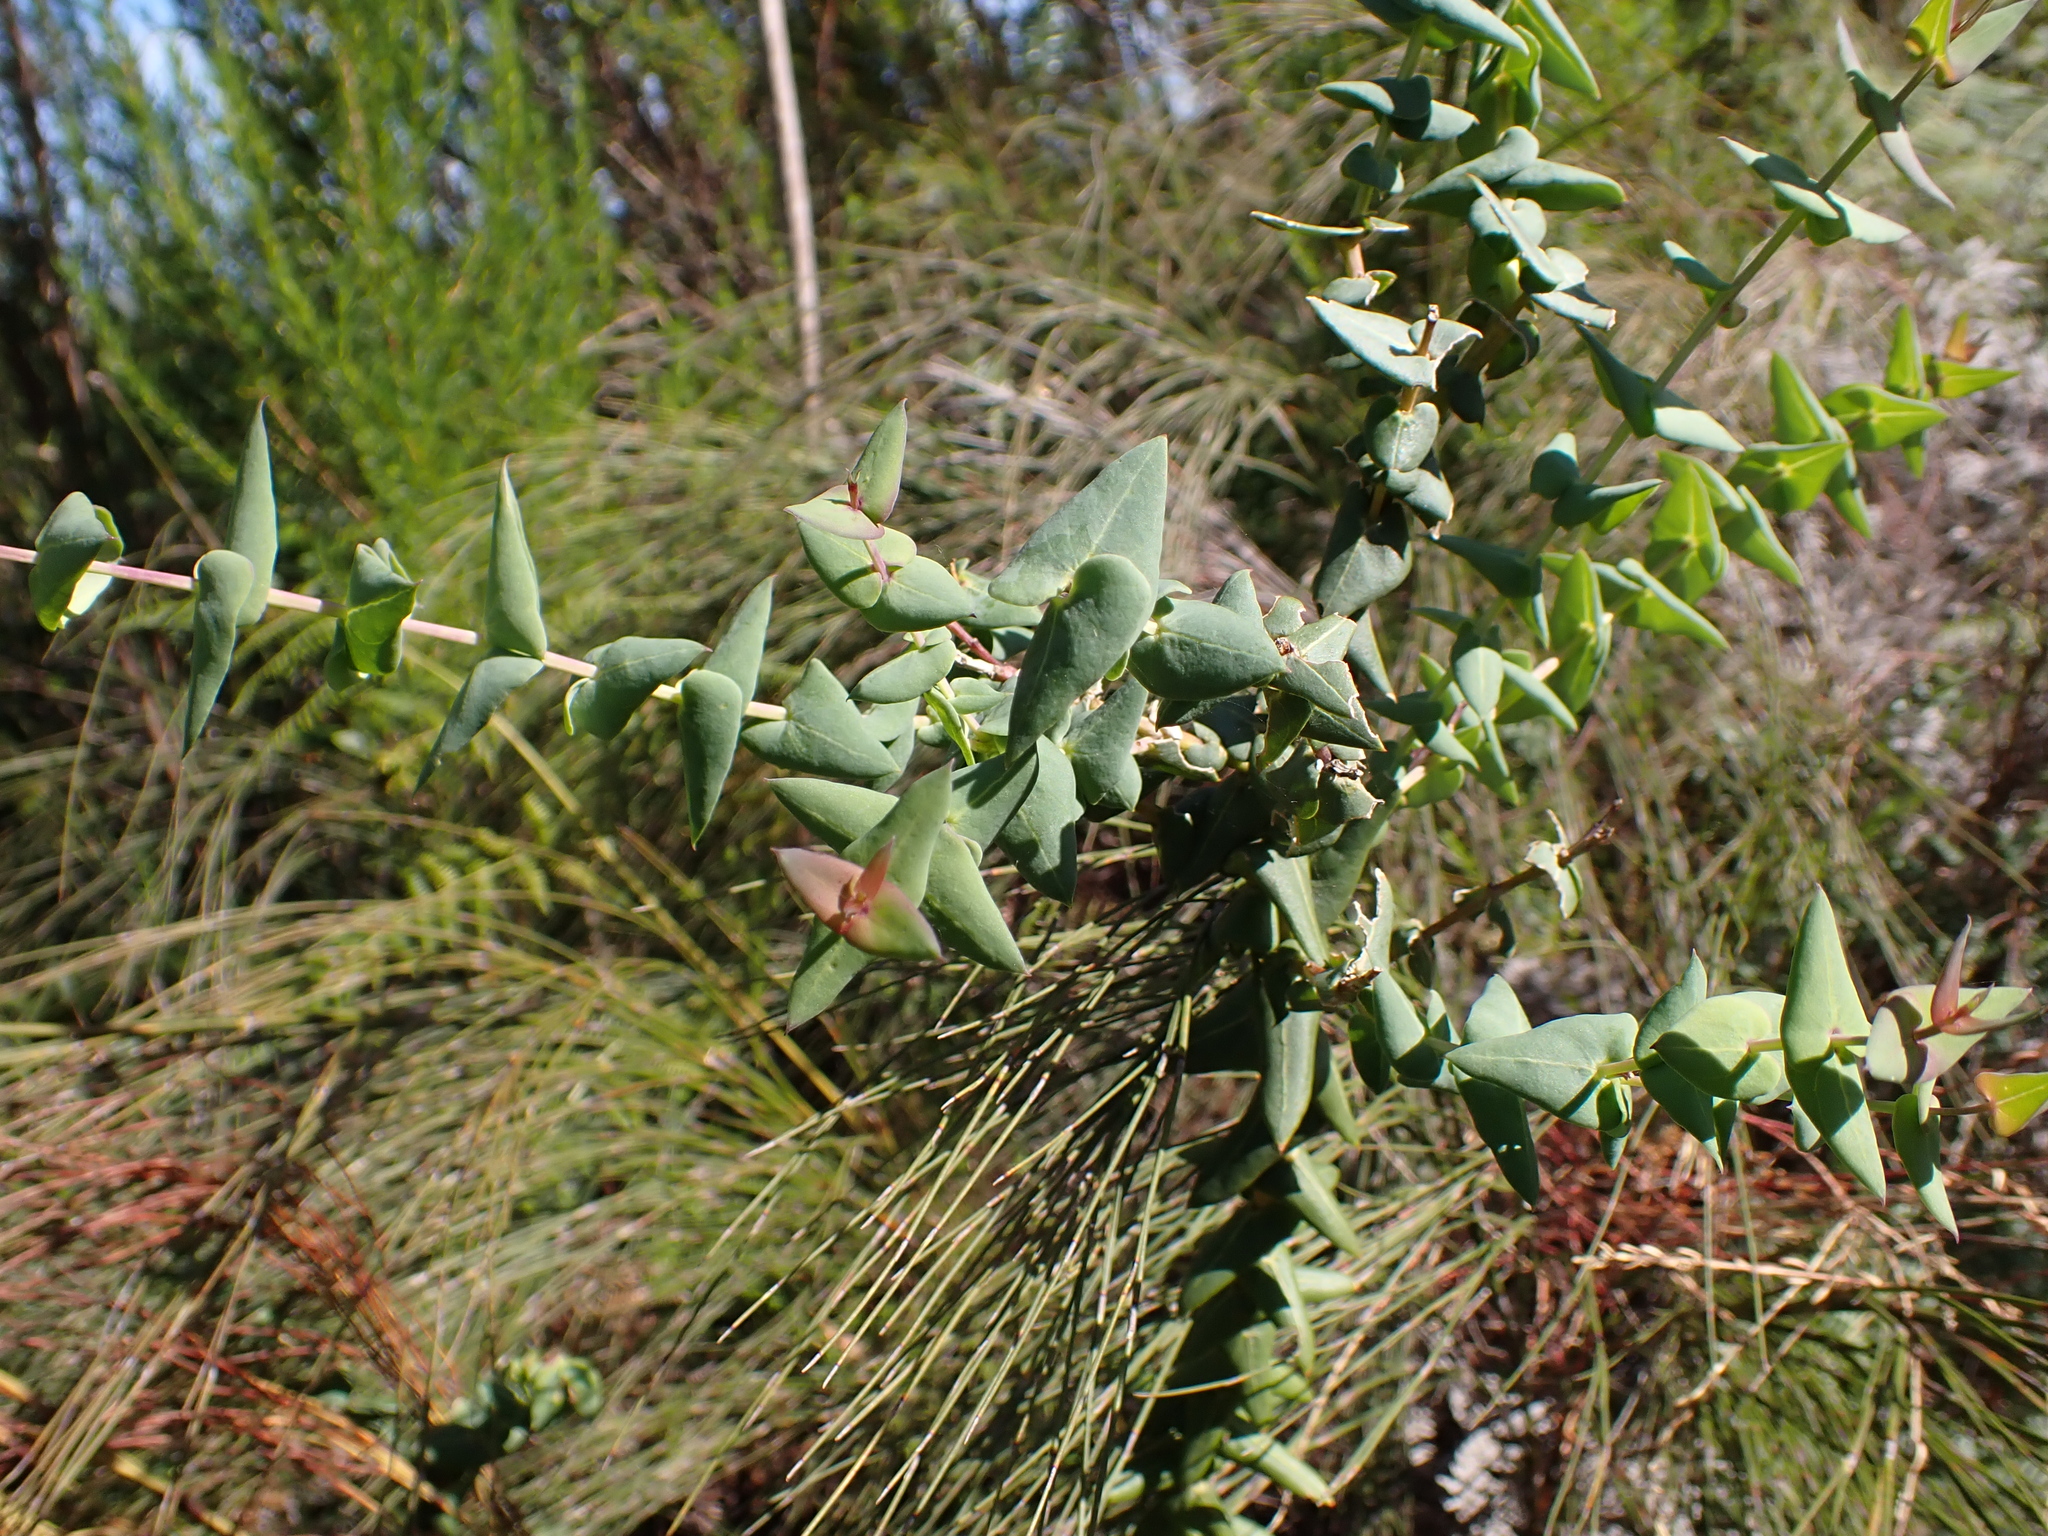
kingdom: Plantae
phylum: Tracheophyta
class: Magnoliopsida
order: Fabales
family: Polygalaceae
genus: Polygala
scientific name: Polygala fruticosa
